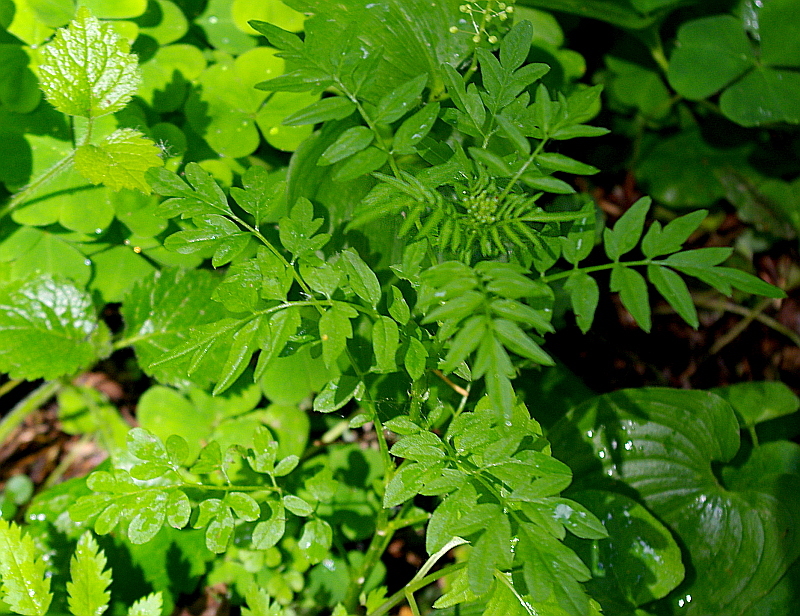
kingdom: Plantae
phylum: Tracheophyta
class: Magnoliopsida
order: Brassicales
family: Brassicaceae
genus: Cardamine
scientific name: Cardamine impatiens
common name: Narrow-leaved bitter-cress
